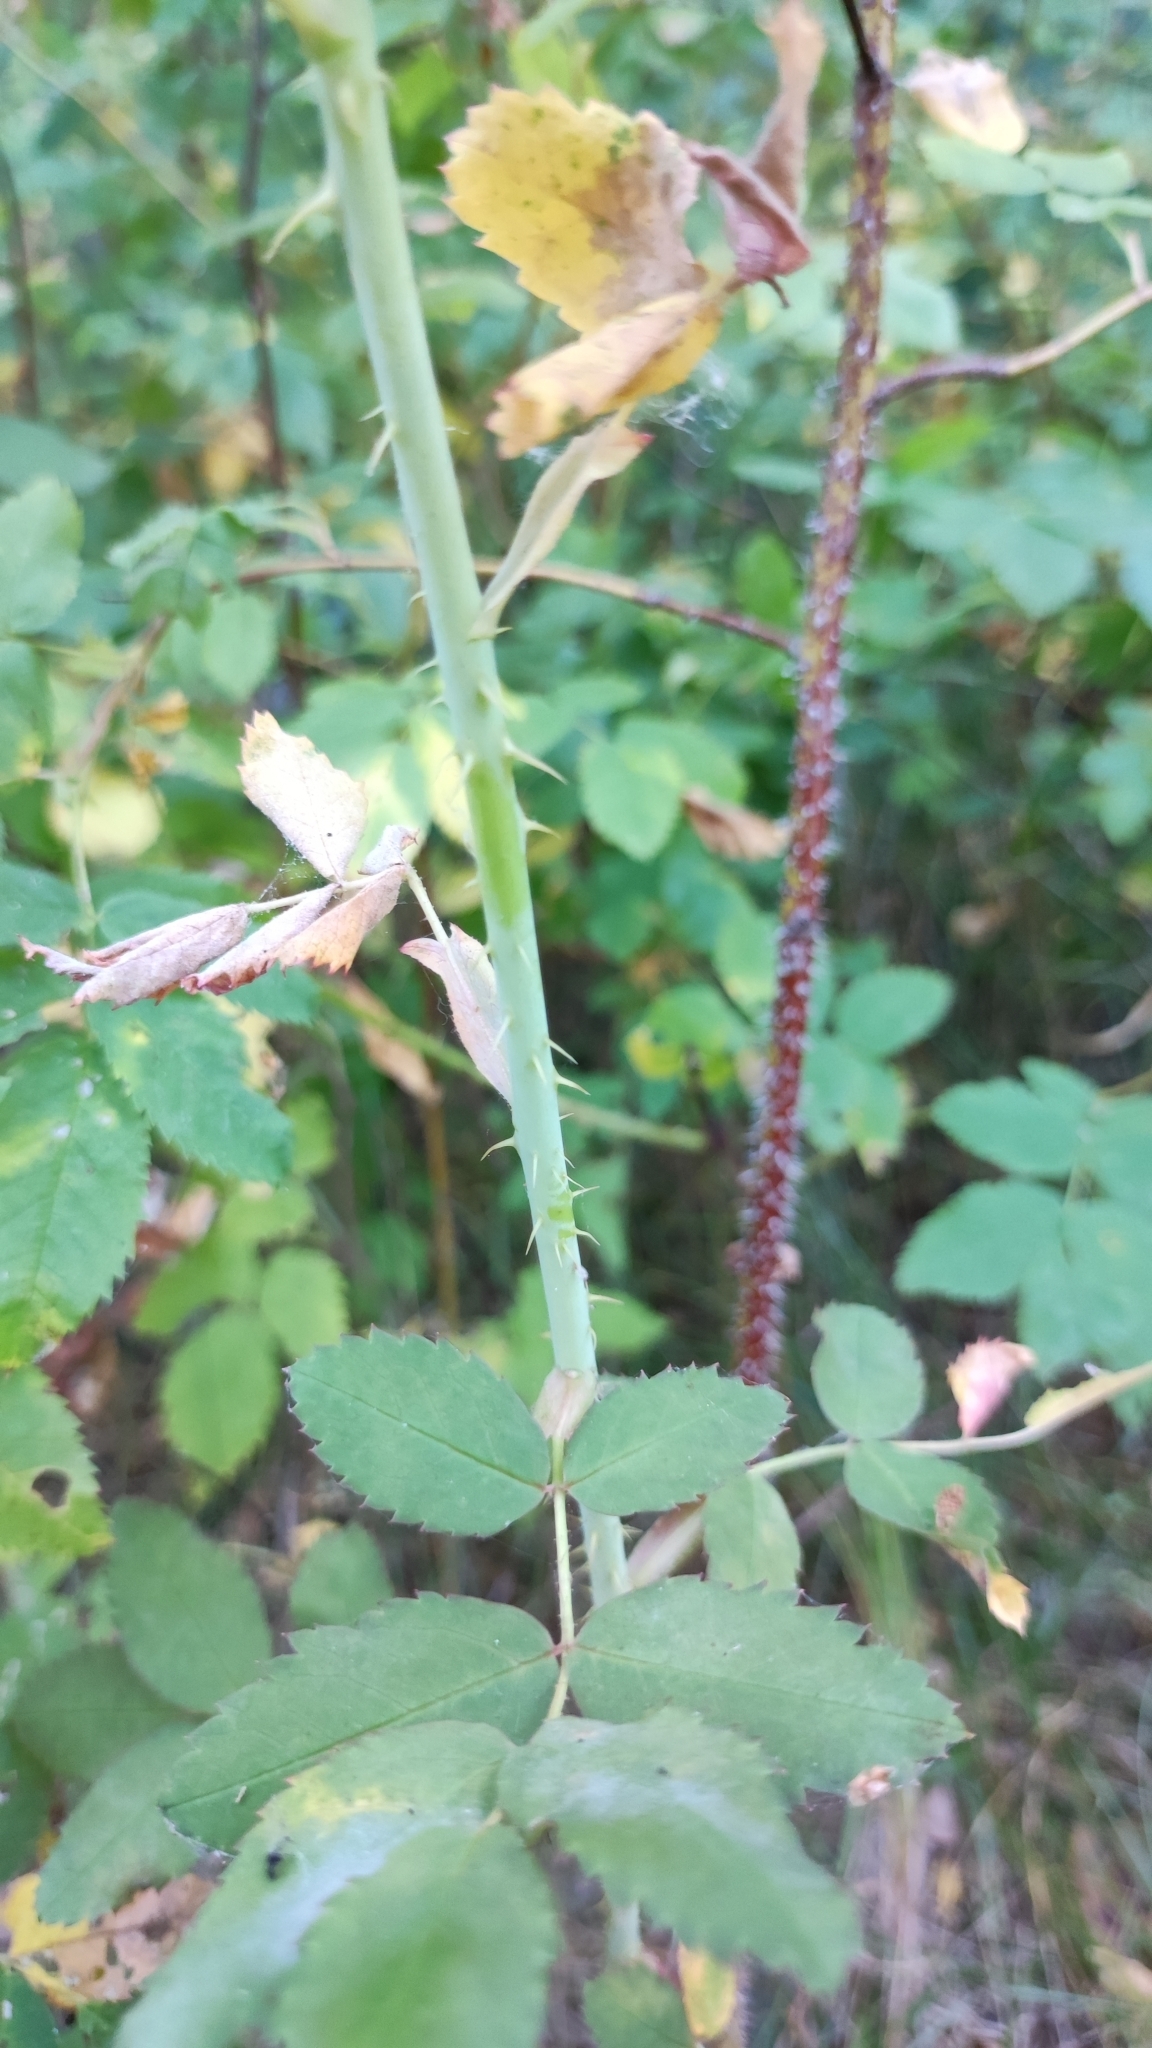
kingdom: Plantae
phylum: Tracheophyta
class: Magnoliopsida
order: Rosales
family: Rosaceae
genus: Rosa
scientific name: Rosa
